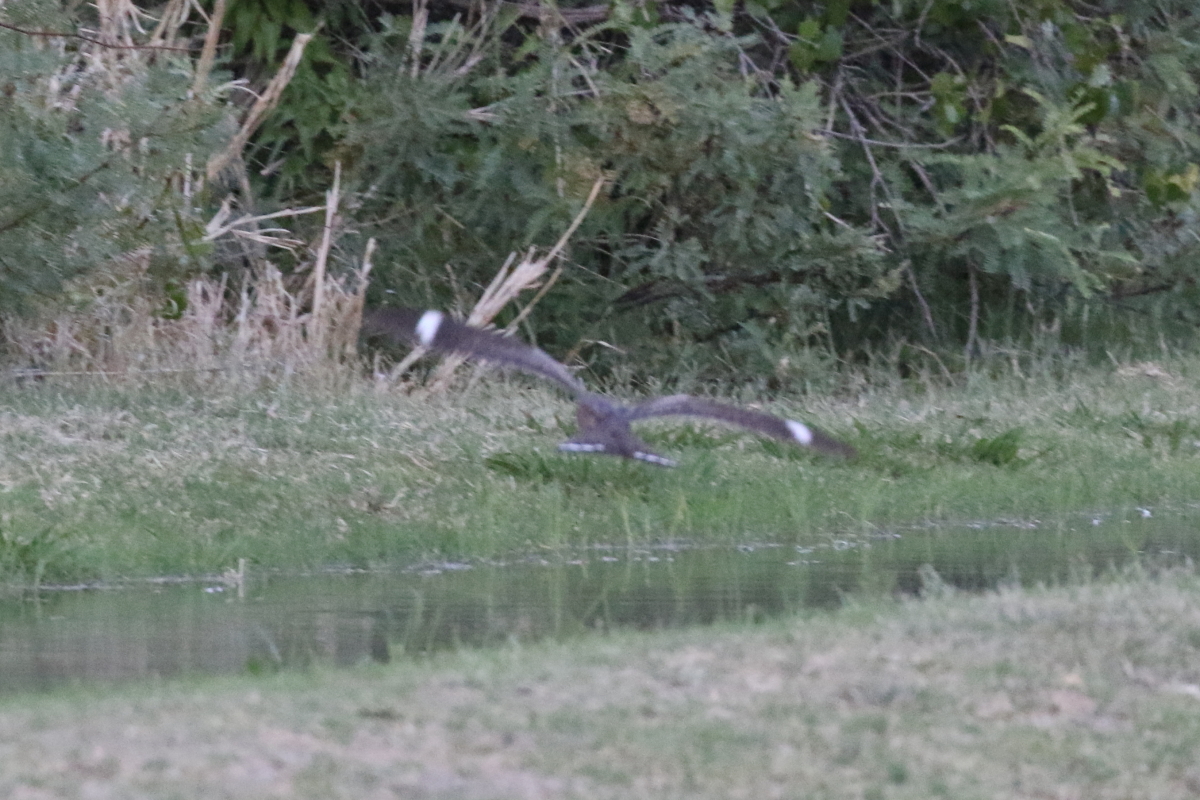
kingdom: Animalia
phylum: Chordata
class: Aves
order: Caprimulgiformes
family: Caprimulgidae
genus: Chordeiles
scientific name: Chordeiles acutipennis
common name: Lesser nighthawk
